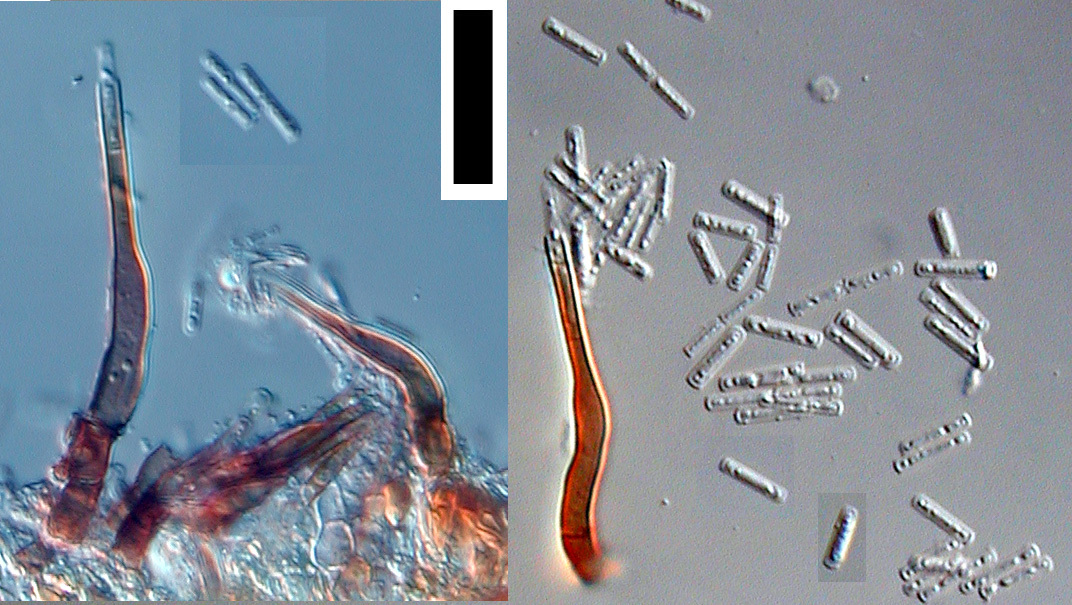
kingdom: Fungi
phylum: Ascomycota
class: Leotiomycetes
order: Helotiales
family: Pezizellaceae
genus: Chalara
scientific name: Chalara affinis
